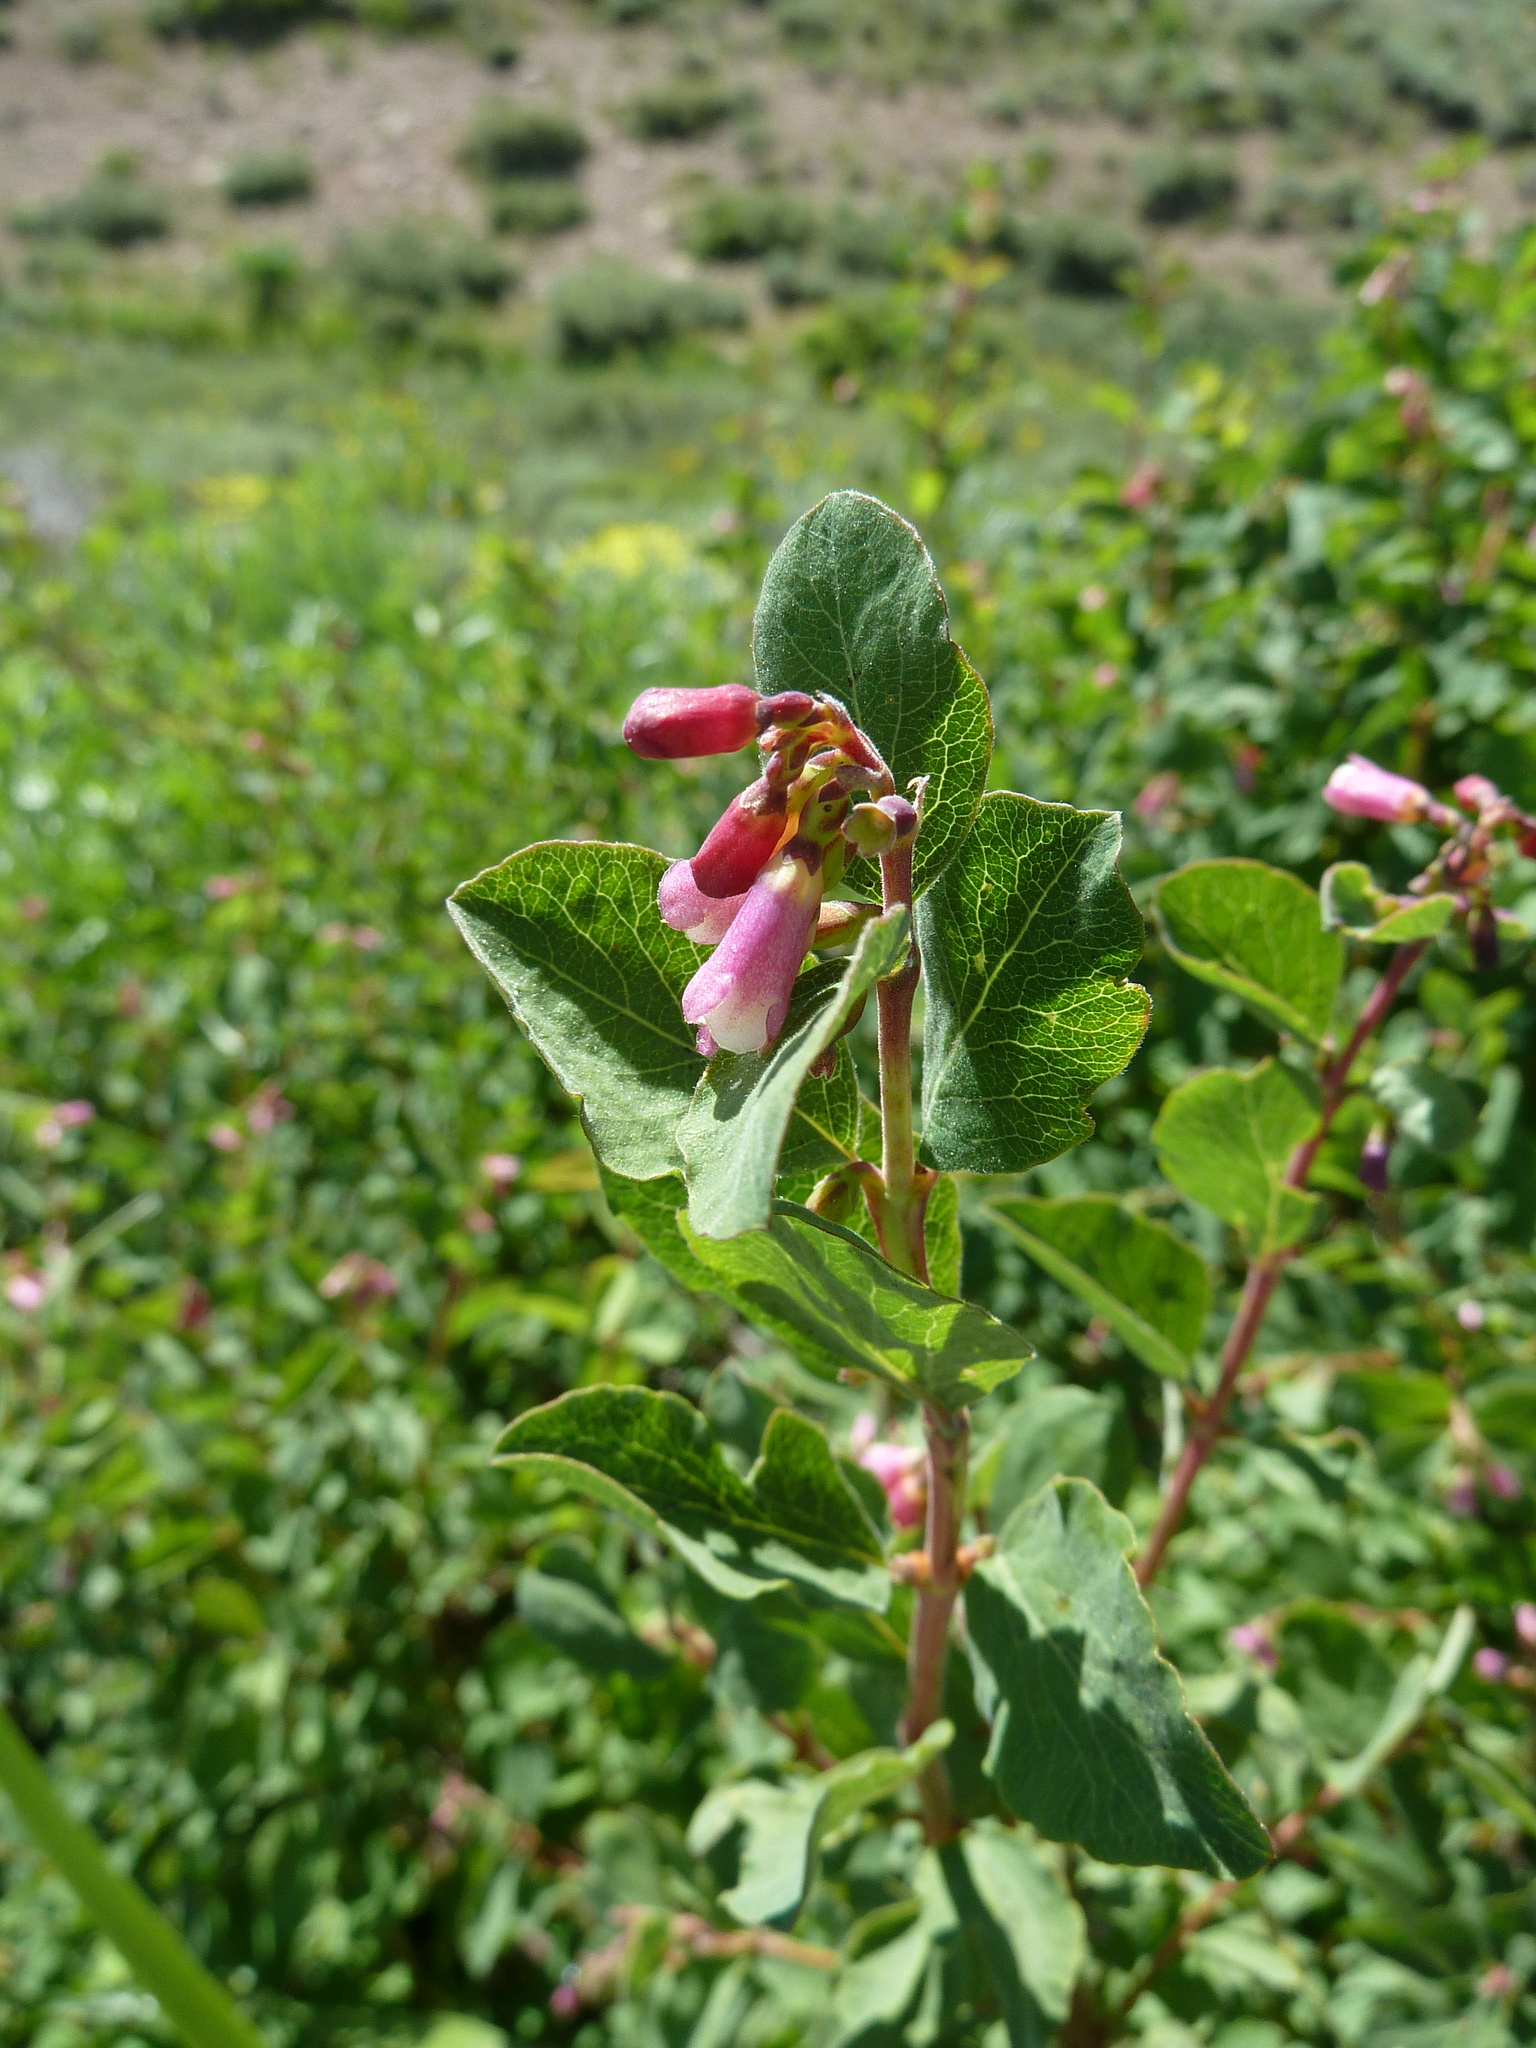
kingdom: Plantae
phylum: Tracheophyta
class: Magnoliopsida
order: Dipsacales
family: Caprifoliaceae
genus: Symphoricarpos
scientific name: Symphoricarpos rotundifolius
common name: Round-leaved snowberry
